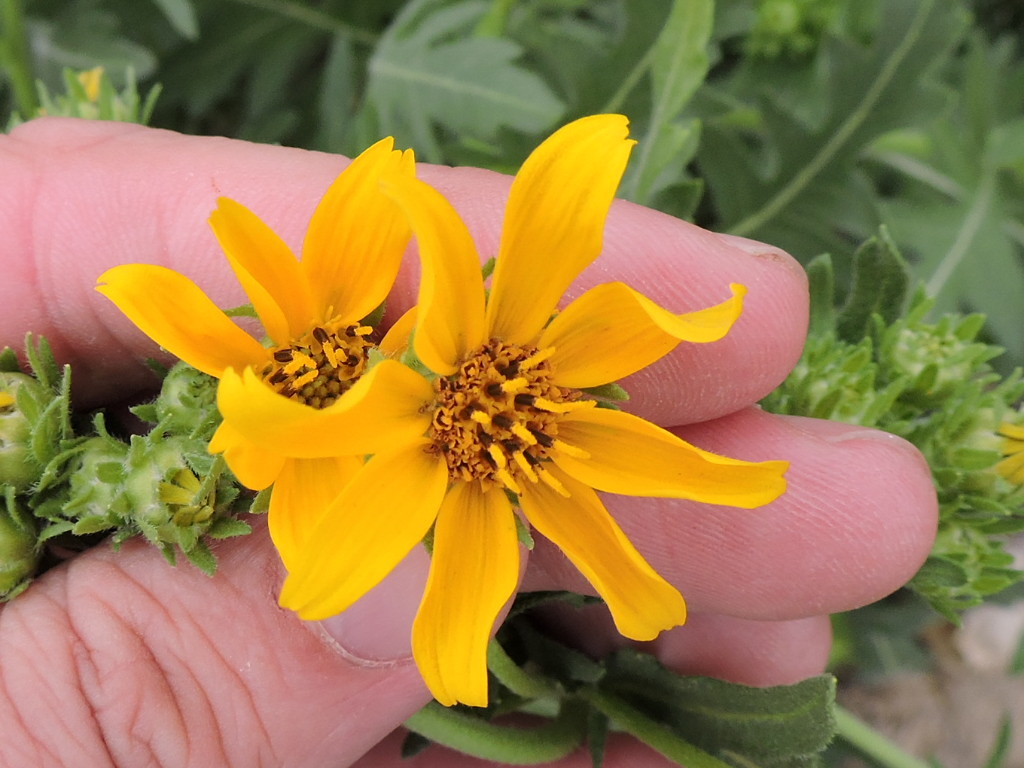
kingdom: Plantae
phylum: Tracheophyta
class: Magnoliopsida
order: Asterales
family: Asteraceae
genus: Engelmannia
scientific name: Engelmannia peristenia
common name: Engelmann's daisy
